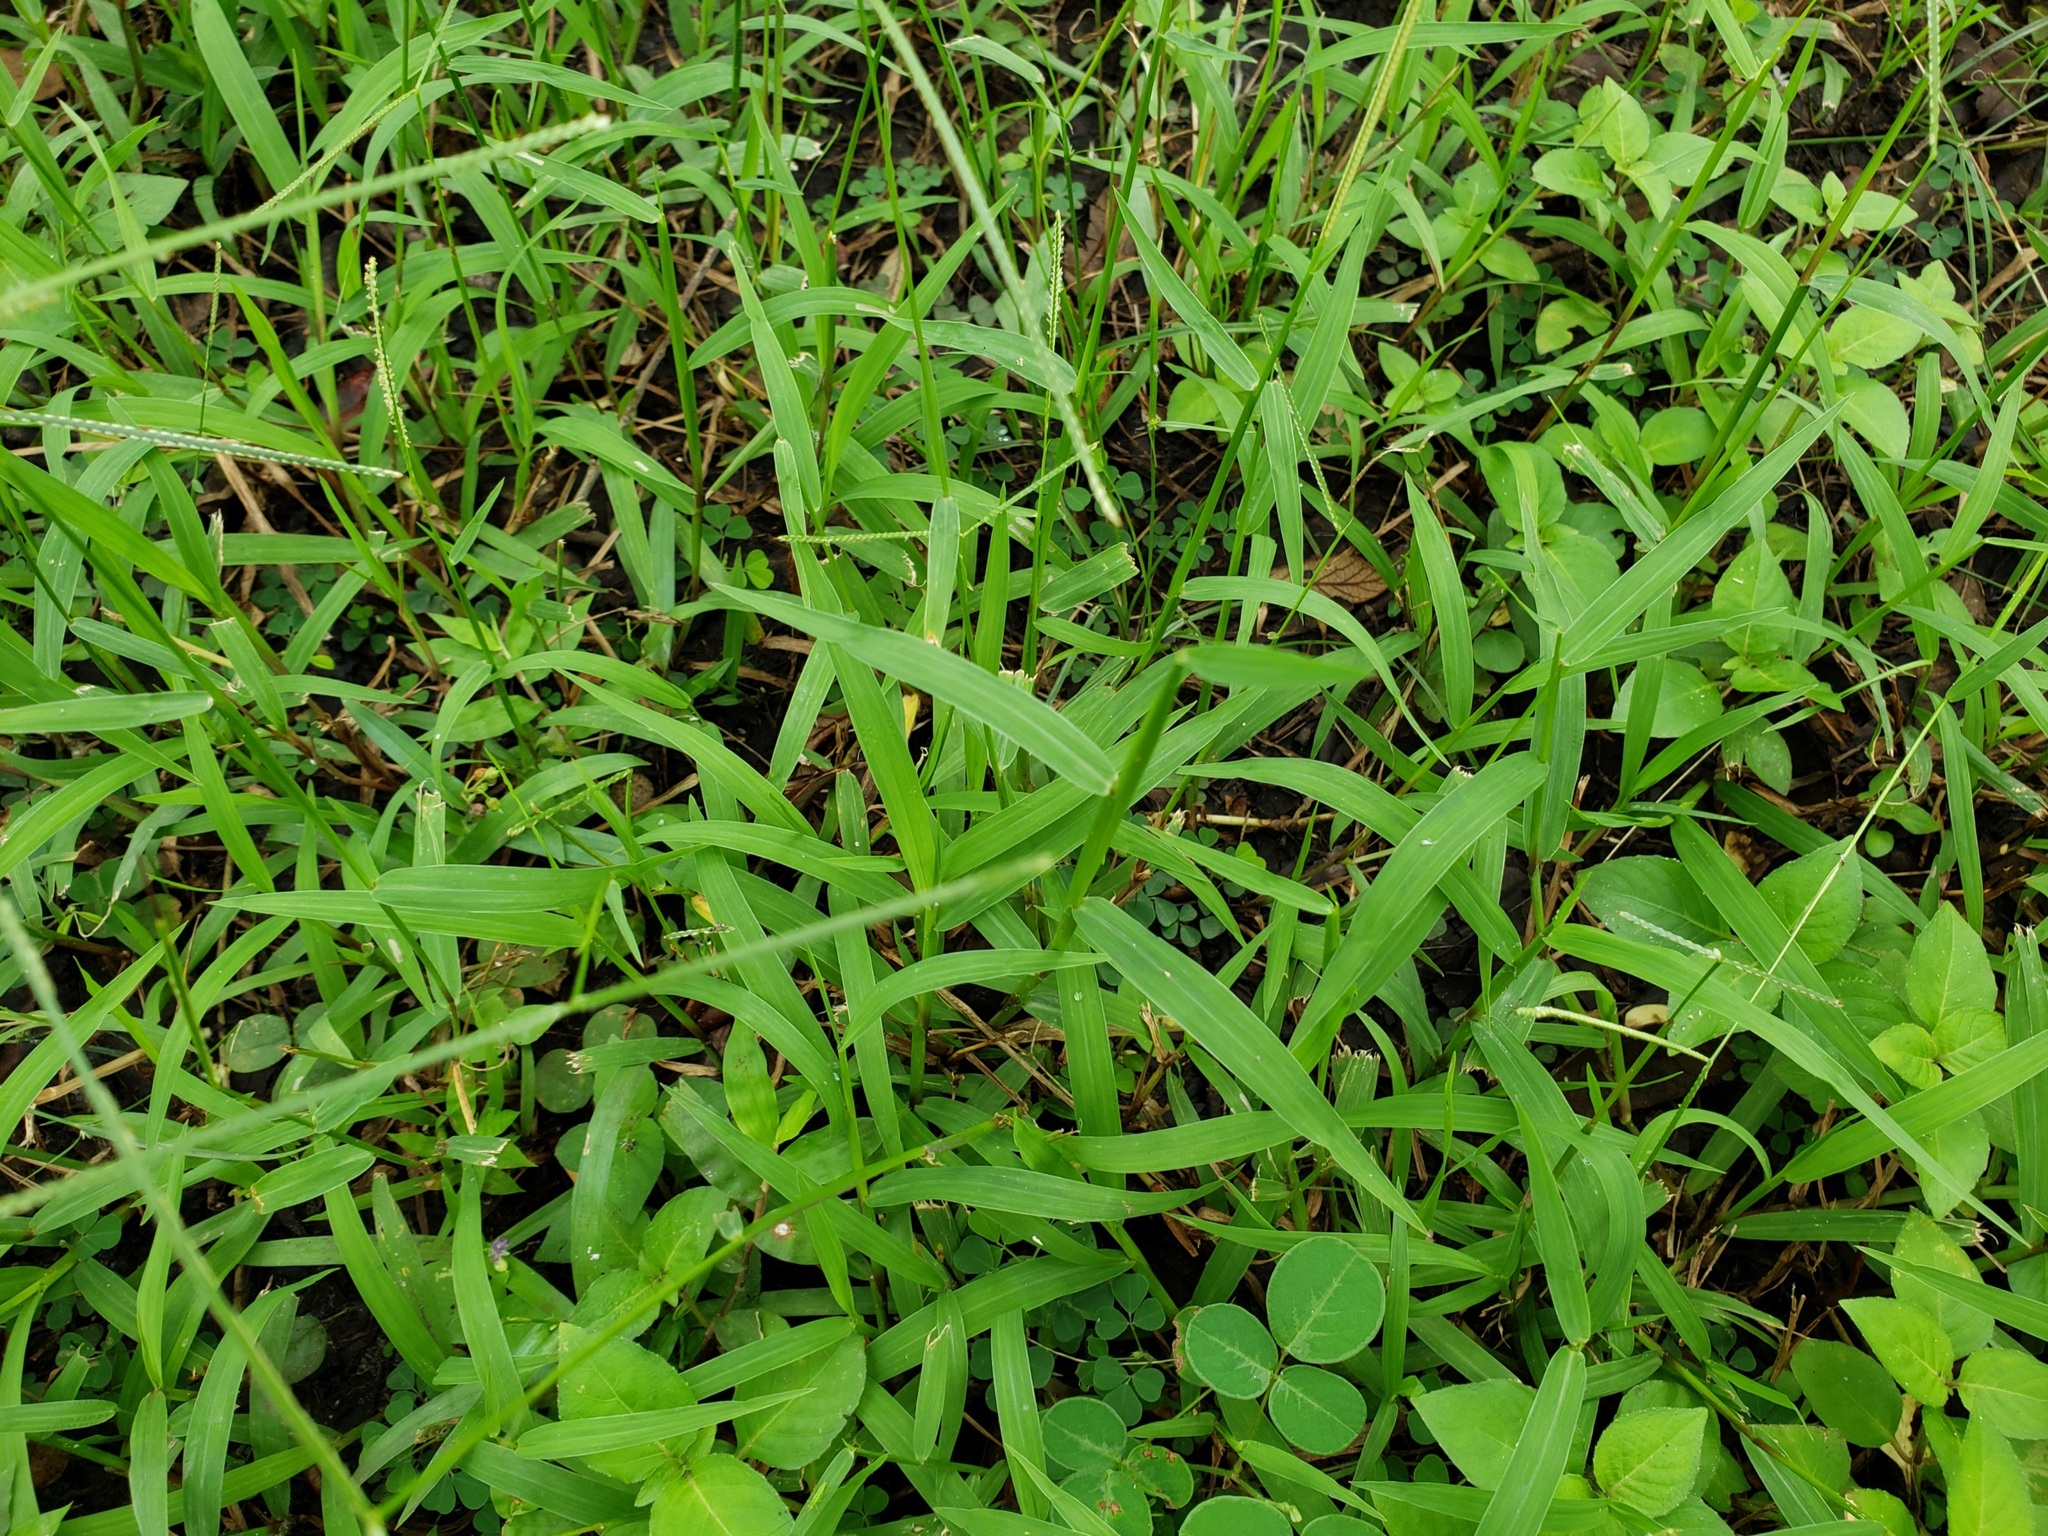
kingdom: Plantae
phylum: Tracheophyta
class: Liliopsida
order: Poales
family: Poaceae
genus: Paspalum
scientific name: Paspalum conjugatum
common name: Hilograss
